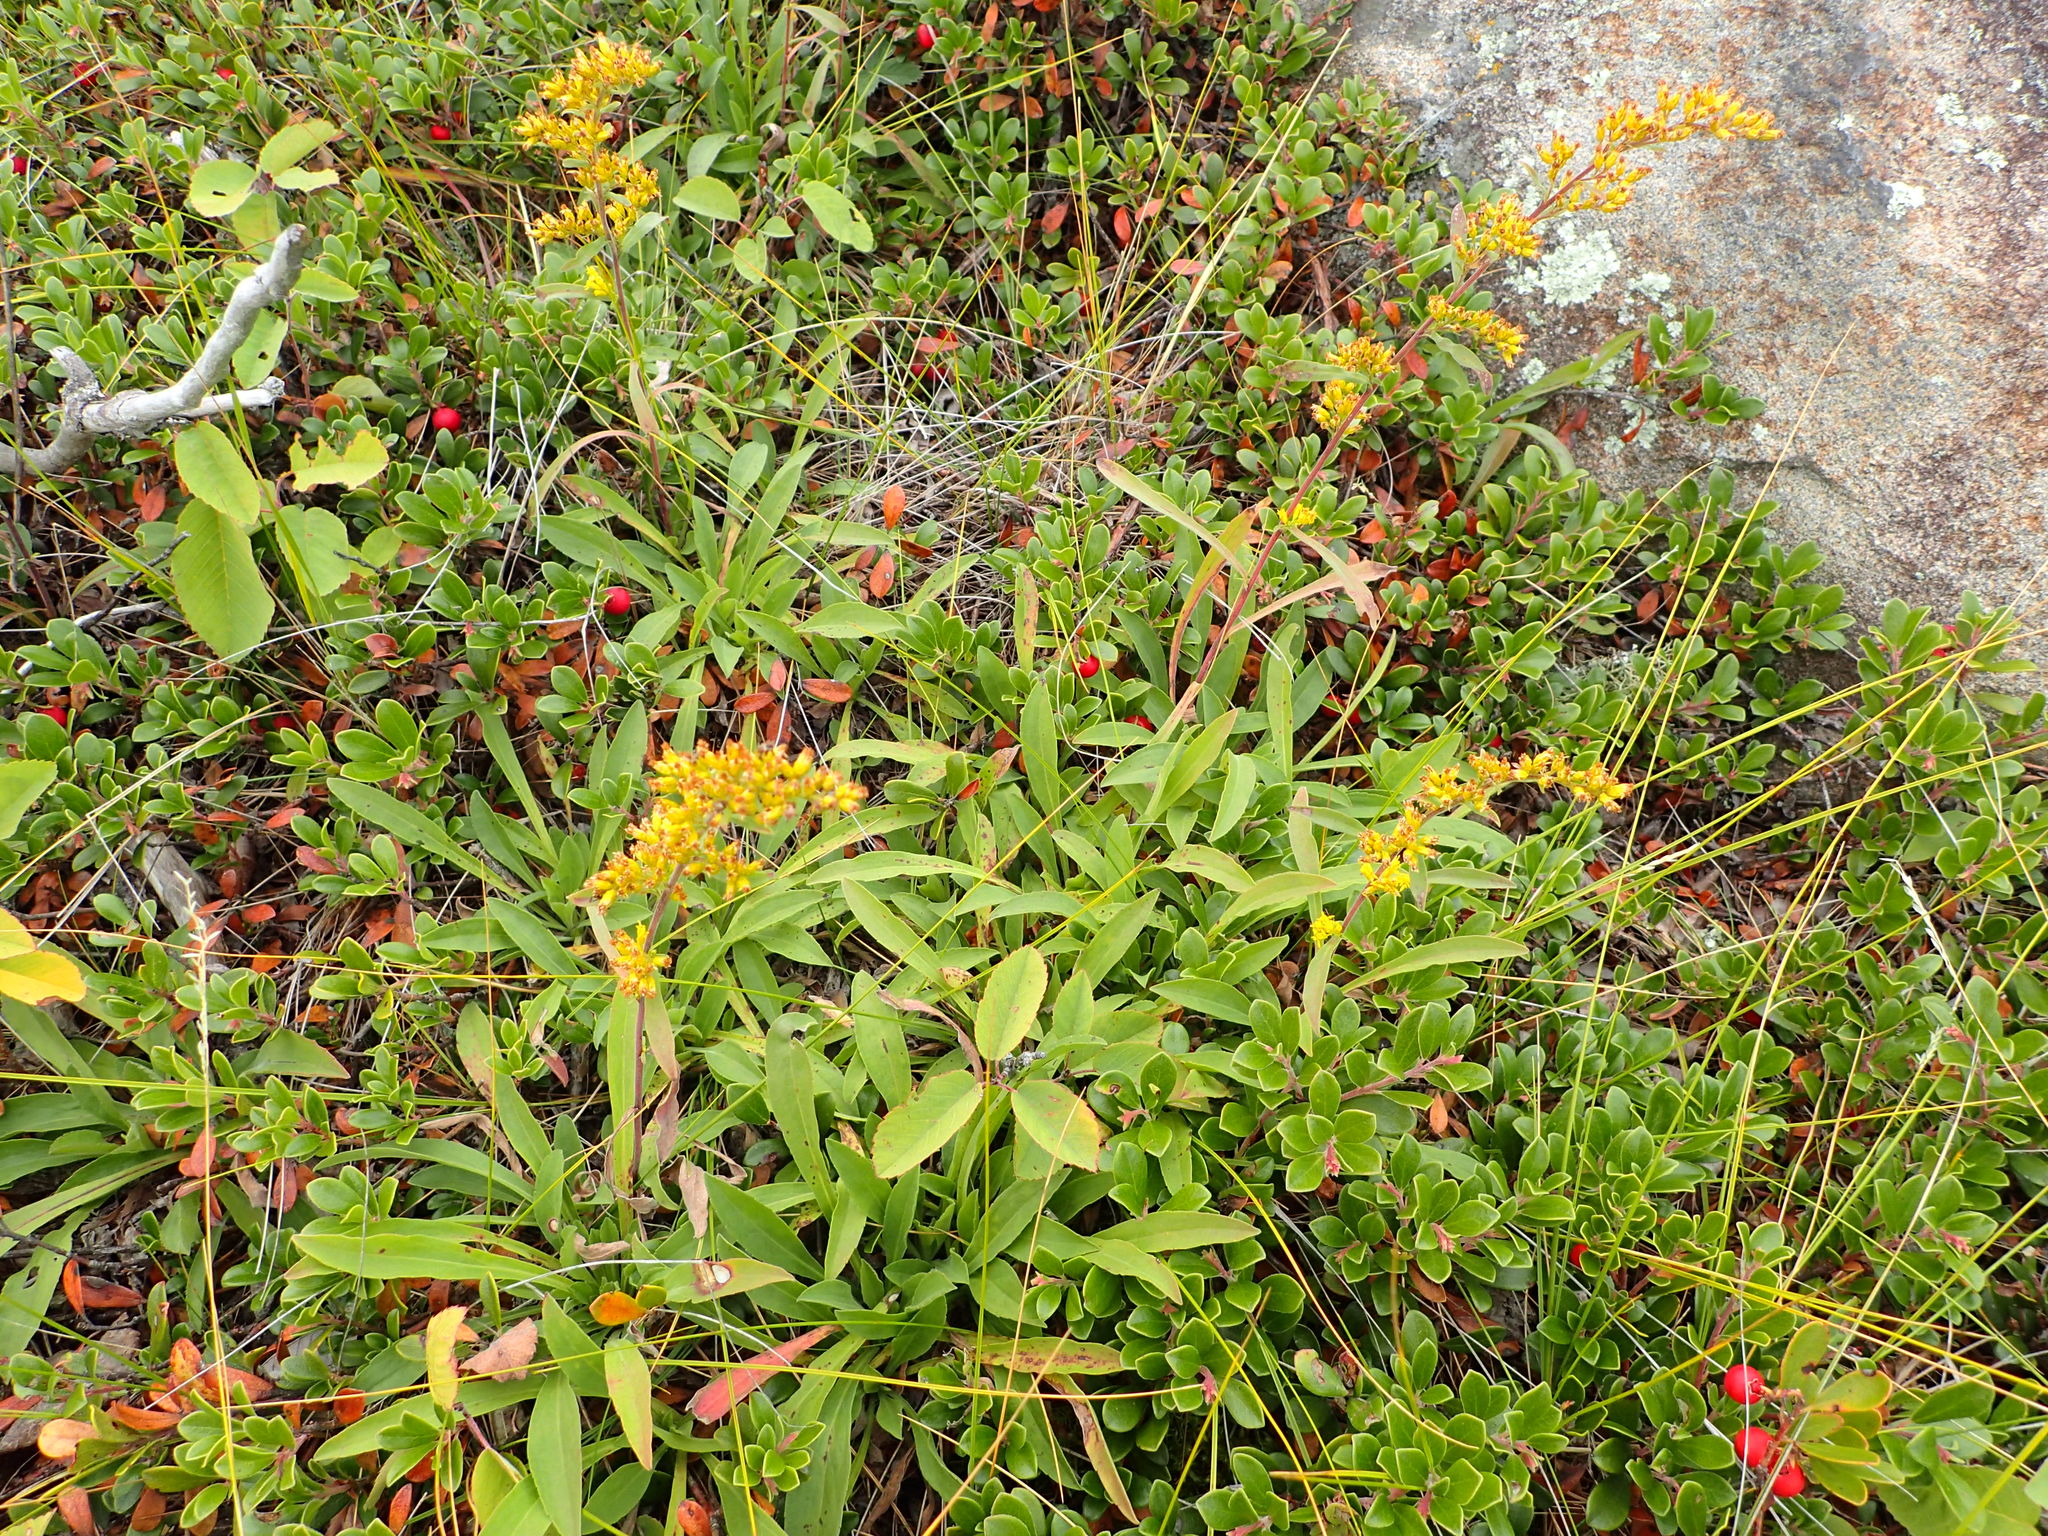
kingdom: Plantae
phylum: Tracheophyta
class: Magnoliopsida
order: Asterales
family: Asteraceae
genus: Solidago
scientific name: Solidago nemoralis
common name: Grey goldenrod
